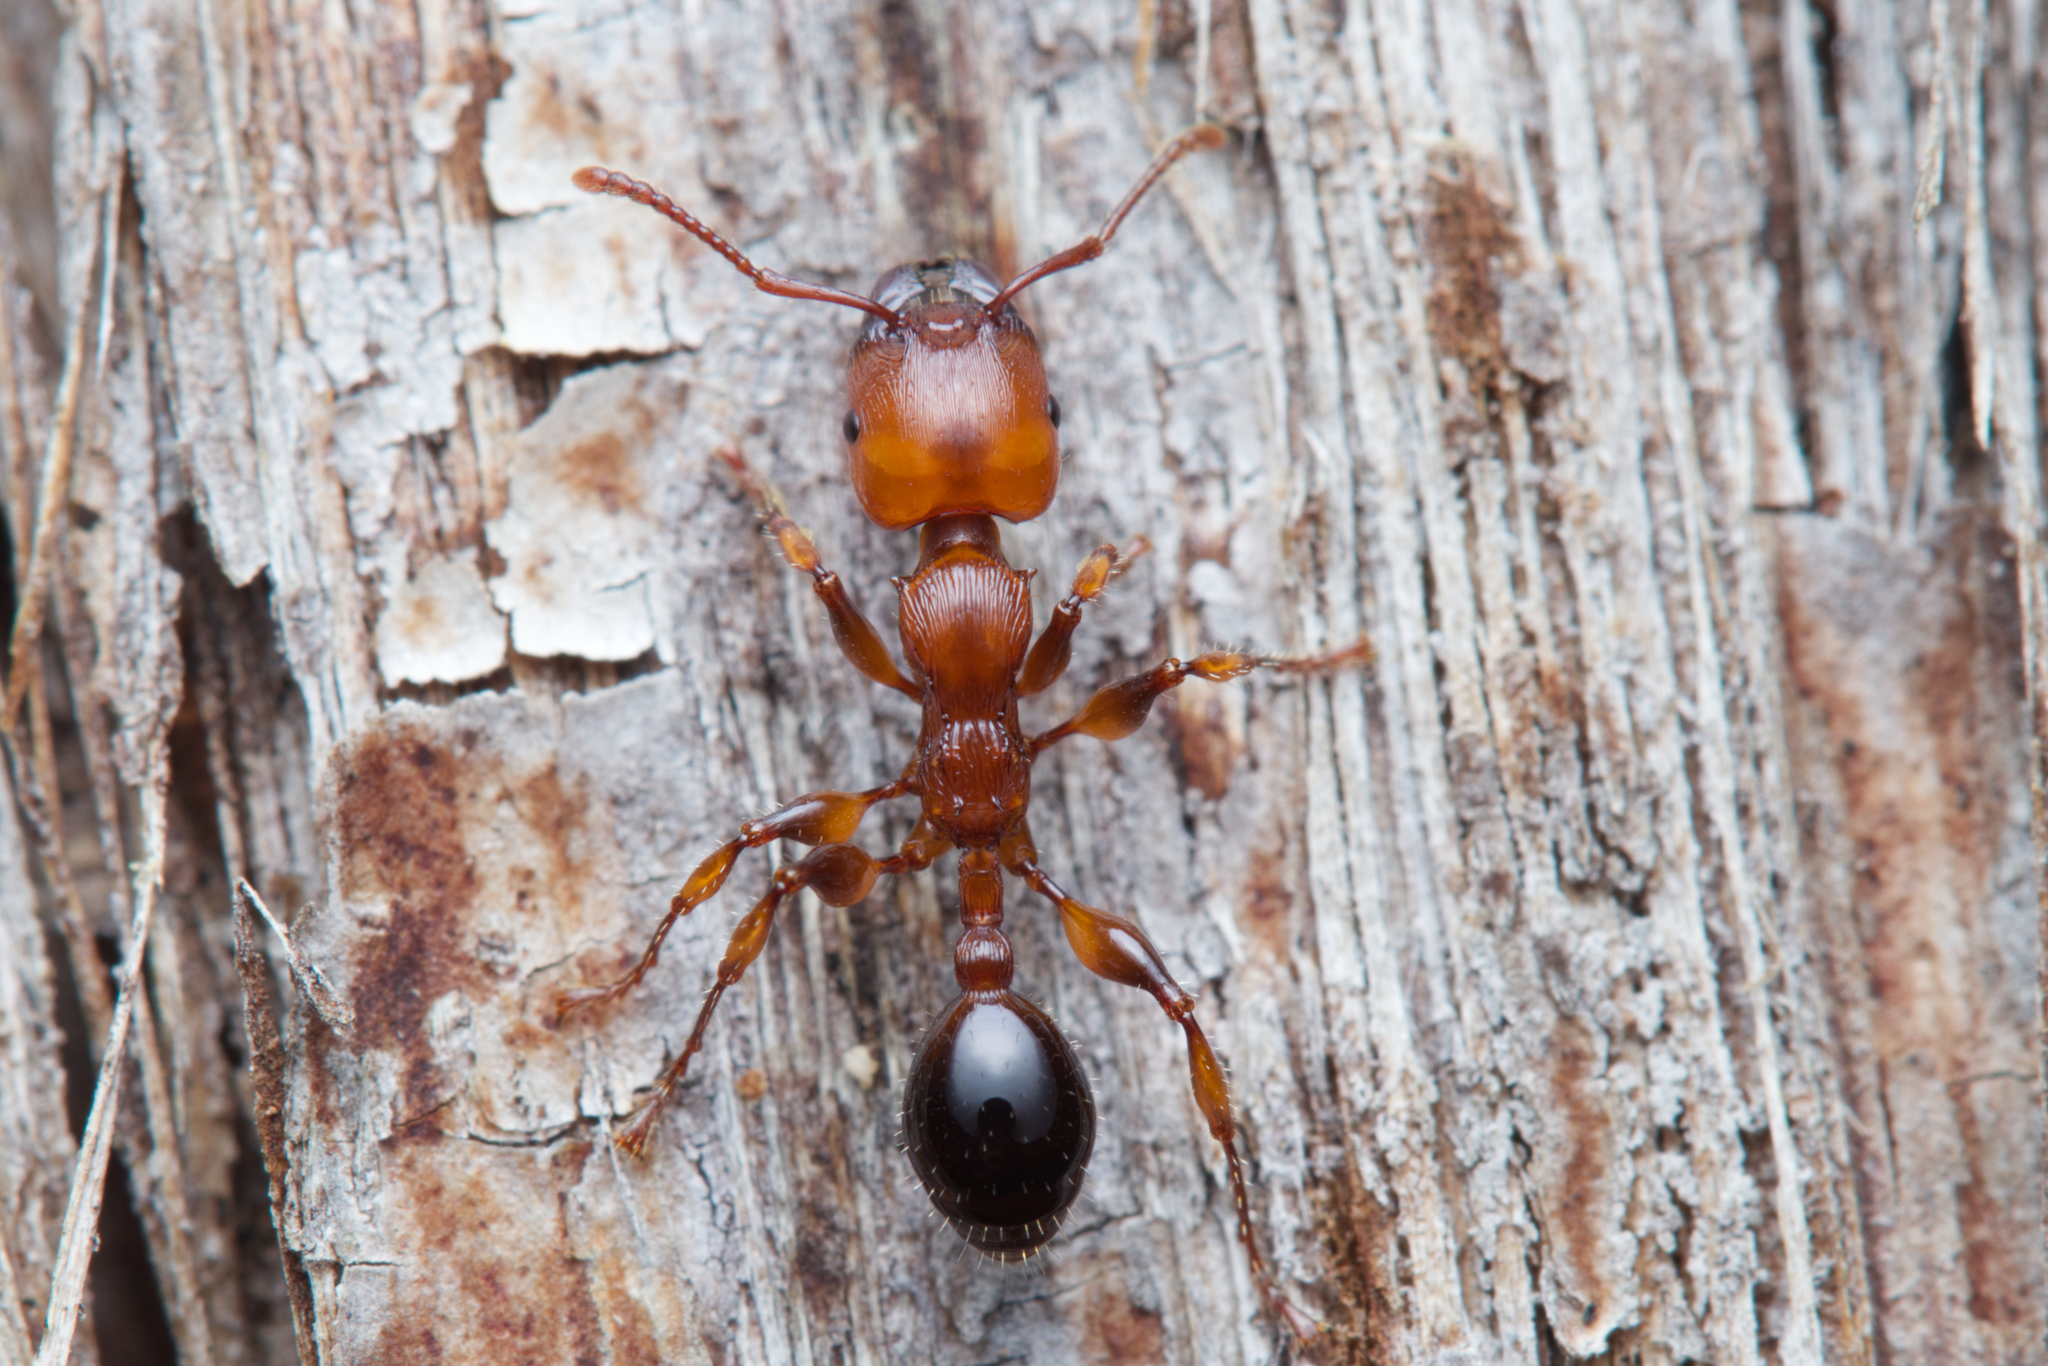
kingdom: Animalia
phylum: Arthropoda
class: Insecta
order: Hymenoptera
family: Formicidae
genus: Podomyrma
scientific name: Podomyrma gratiosa
